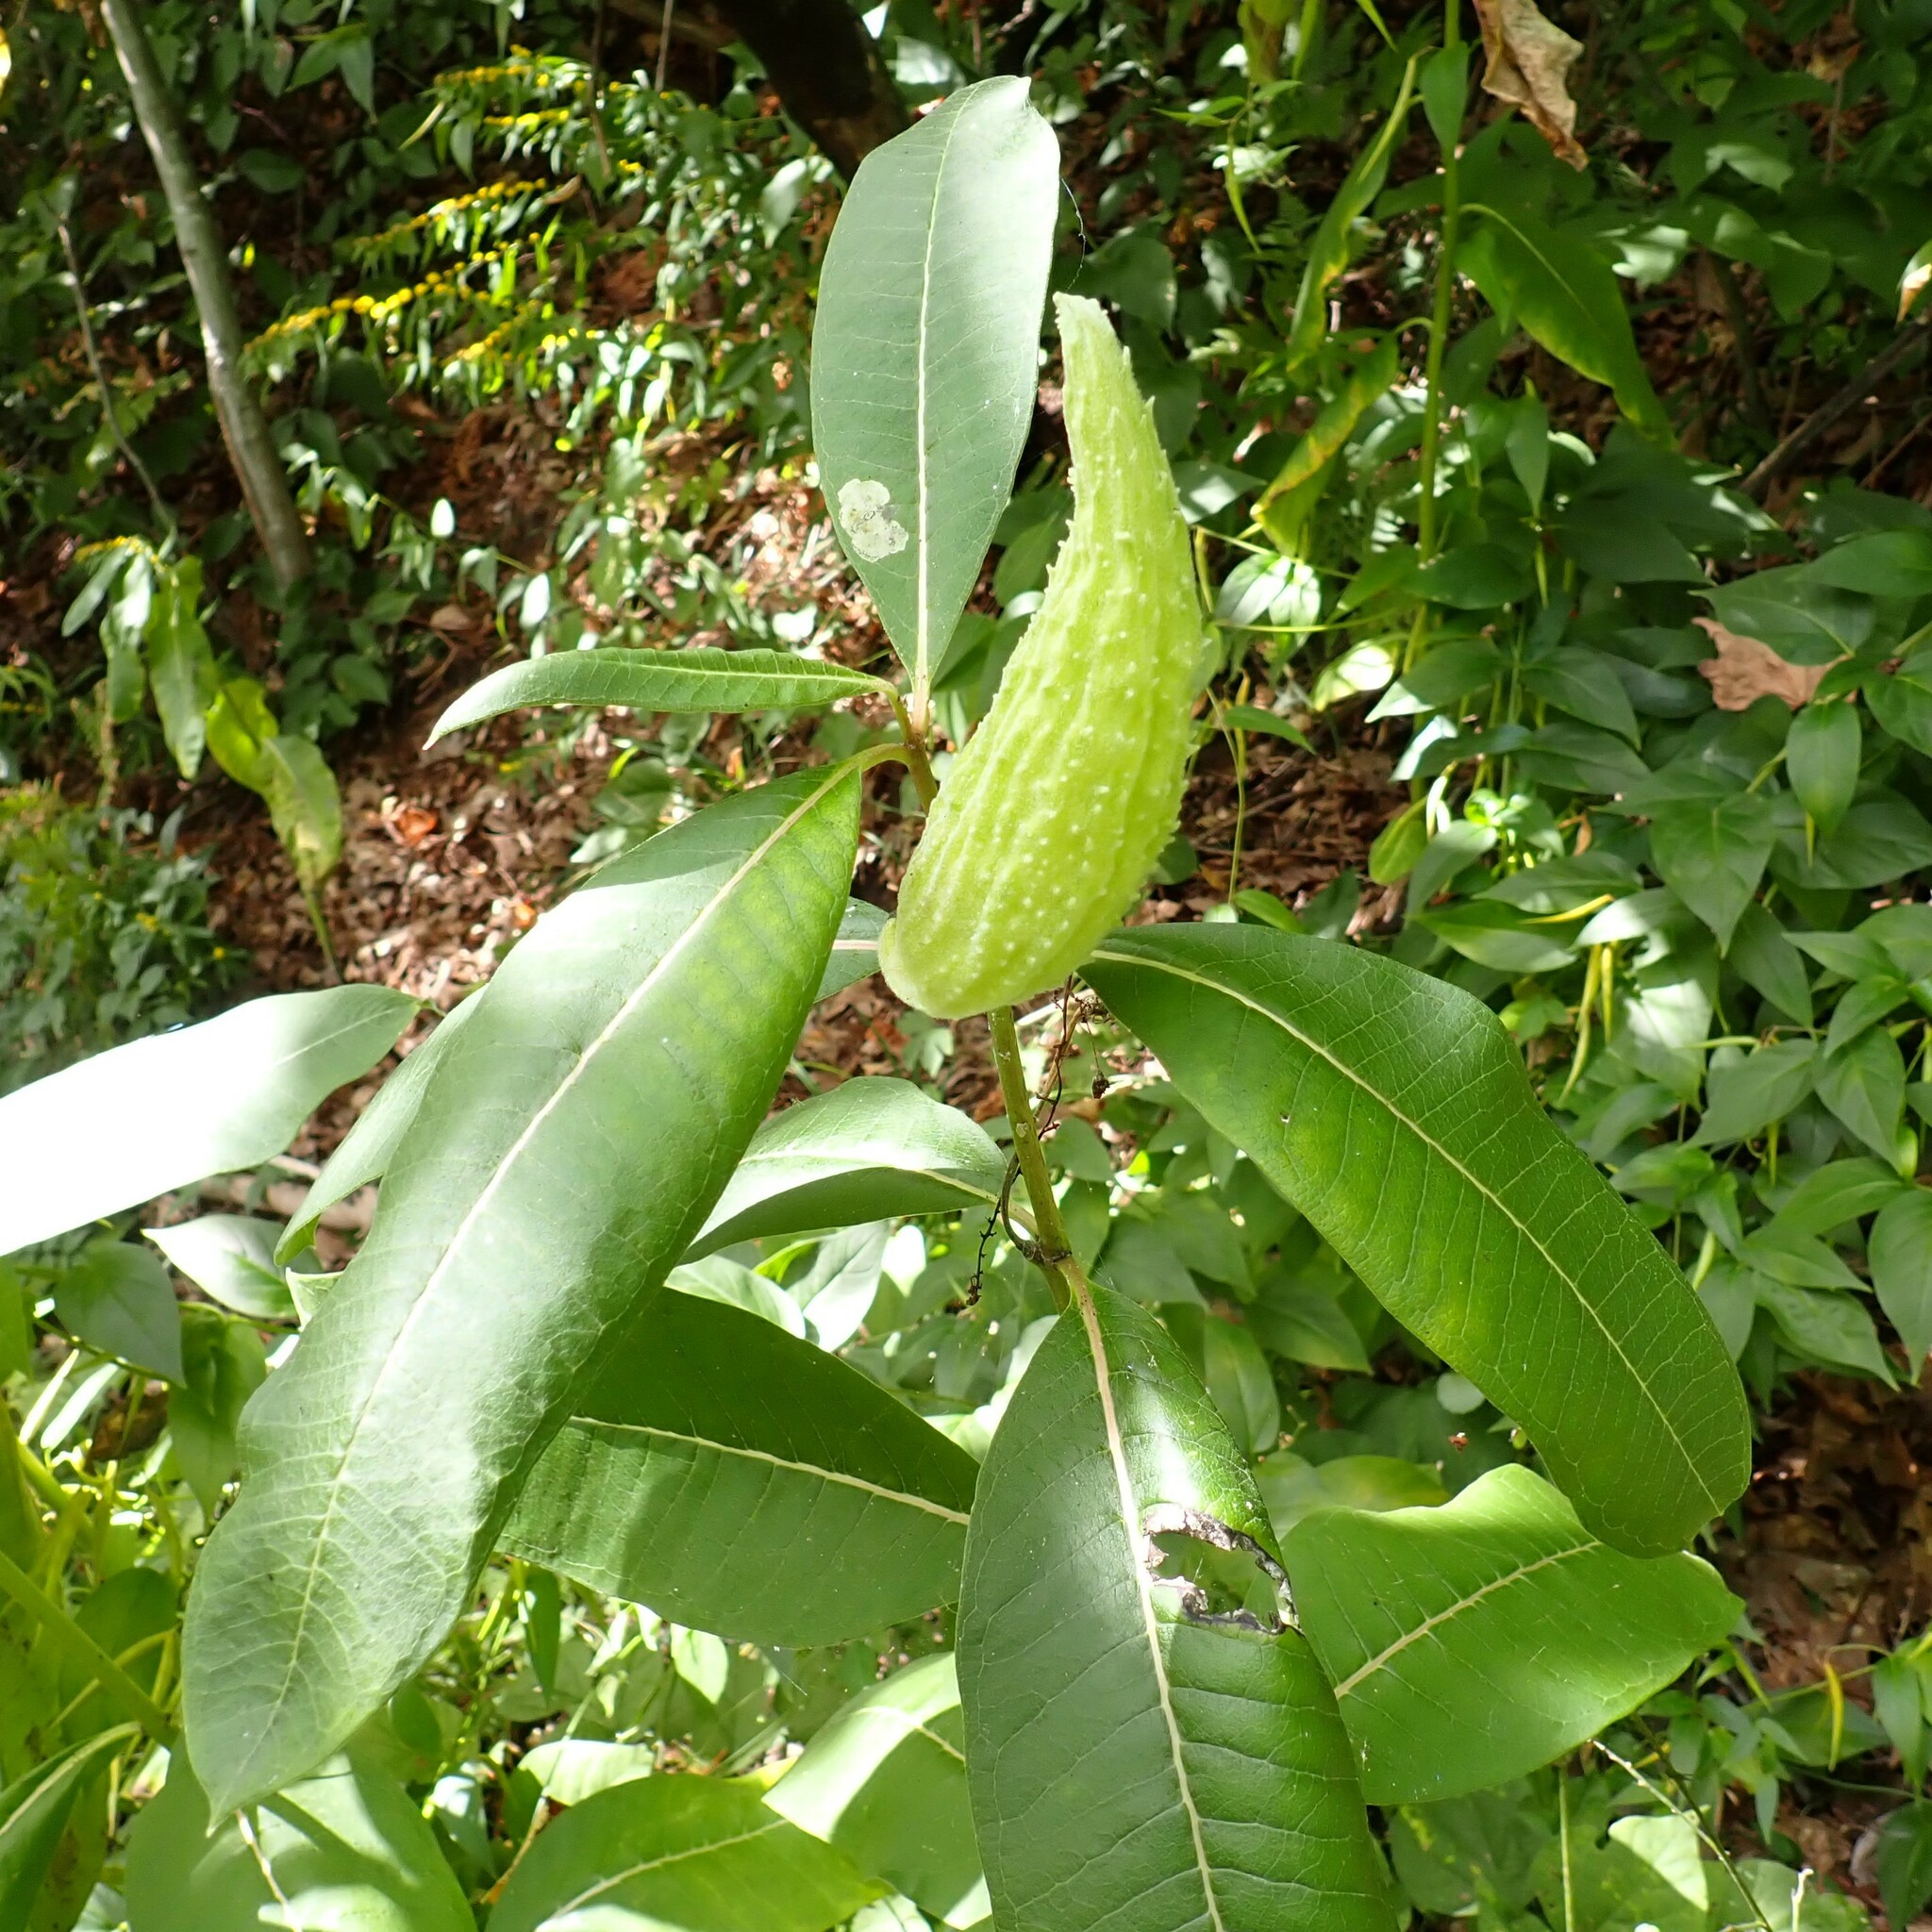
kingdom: Plantae
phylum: Tracheophyta
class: Magnoliopsida
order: Gentianales
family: Apocynaceae
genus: Asclepias
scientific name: Asclepias syriaca
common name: Common milkweed
